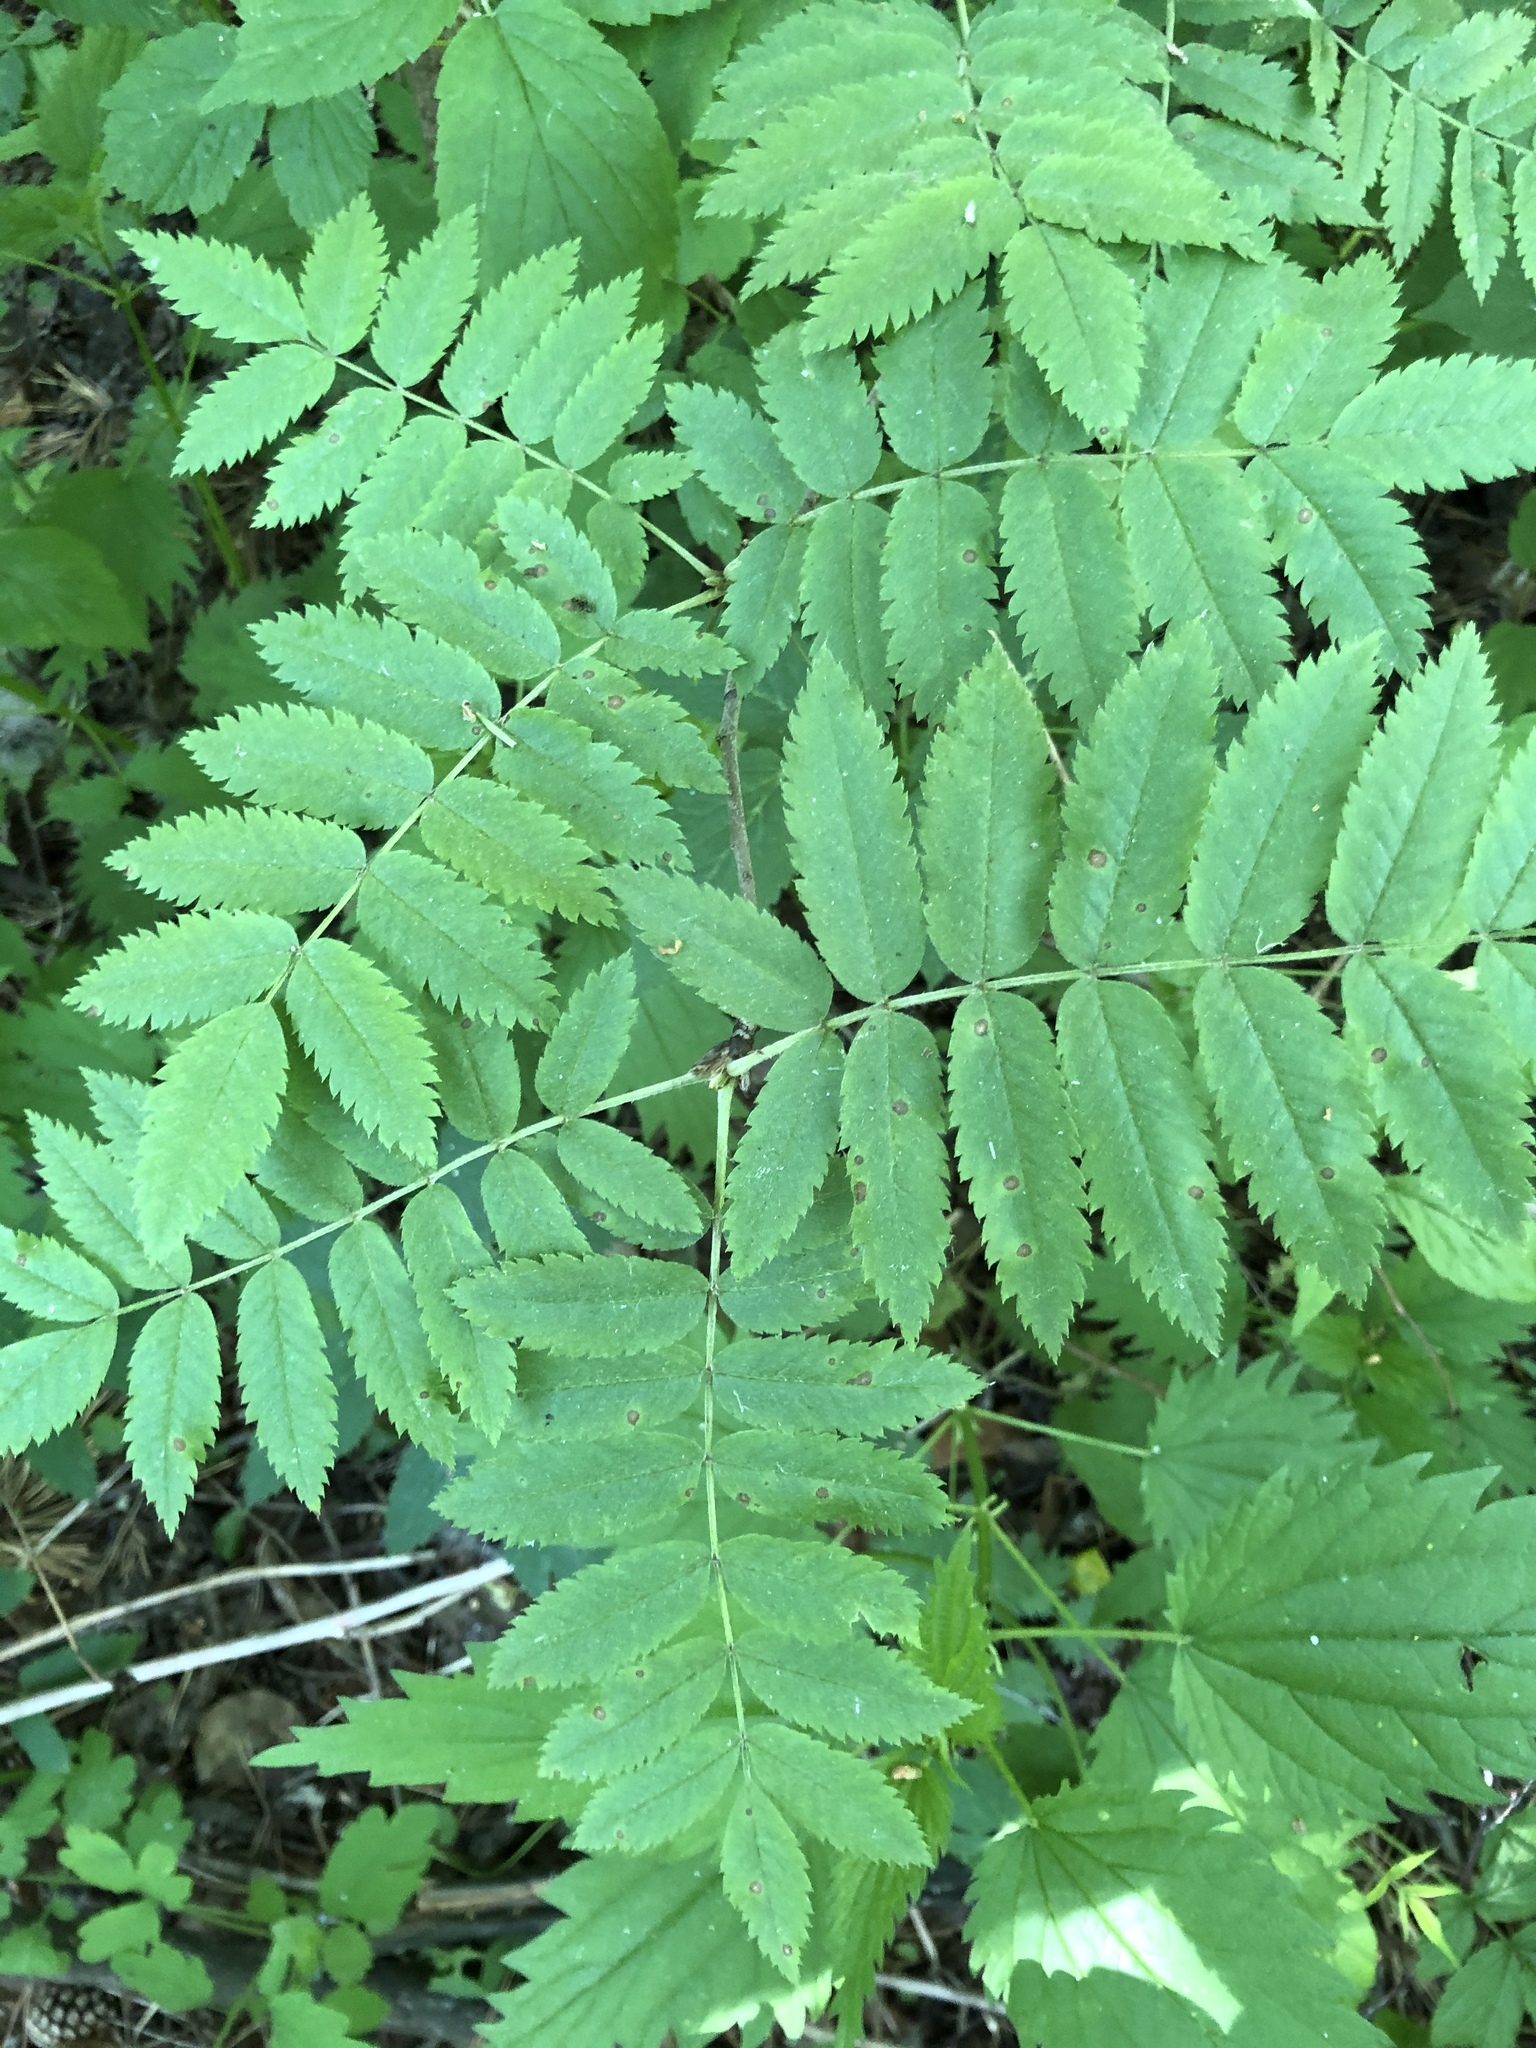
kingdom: Plantae
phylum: Tracheophyta
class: Magnoliopsida
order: Rosales
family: Rosaceae
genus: Sorbus
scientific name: Sorbus aucuparia
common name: Rowan
